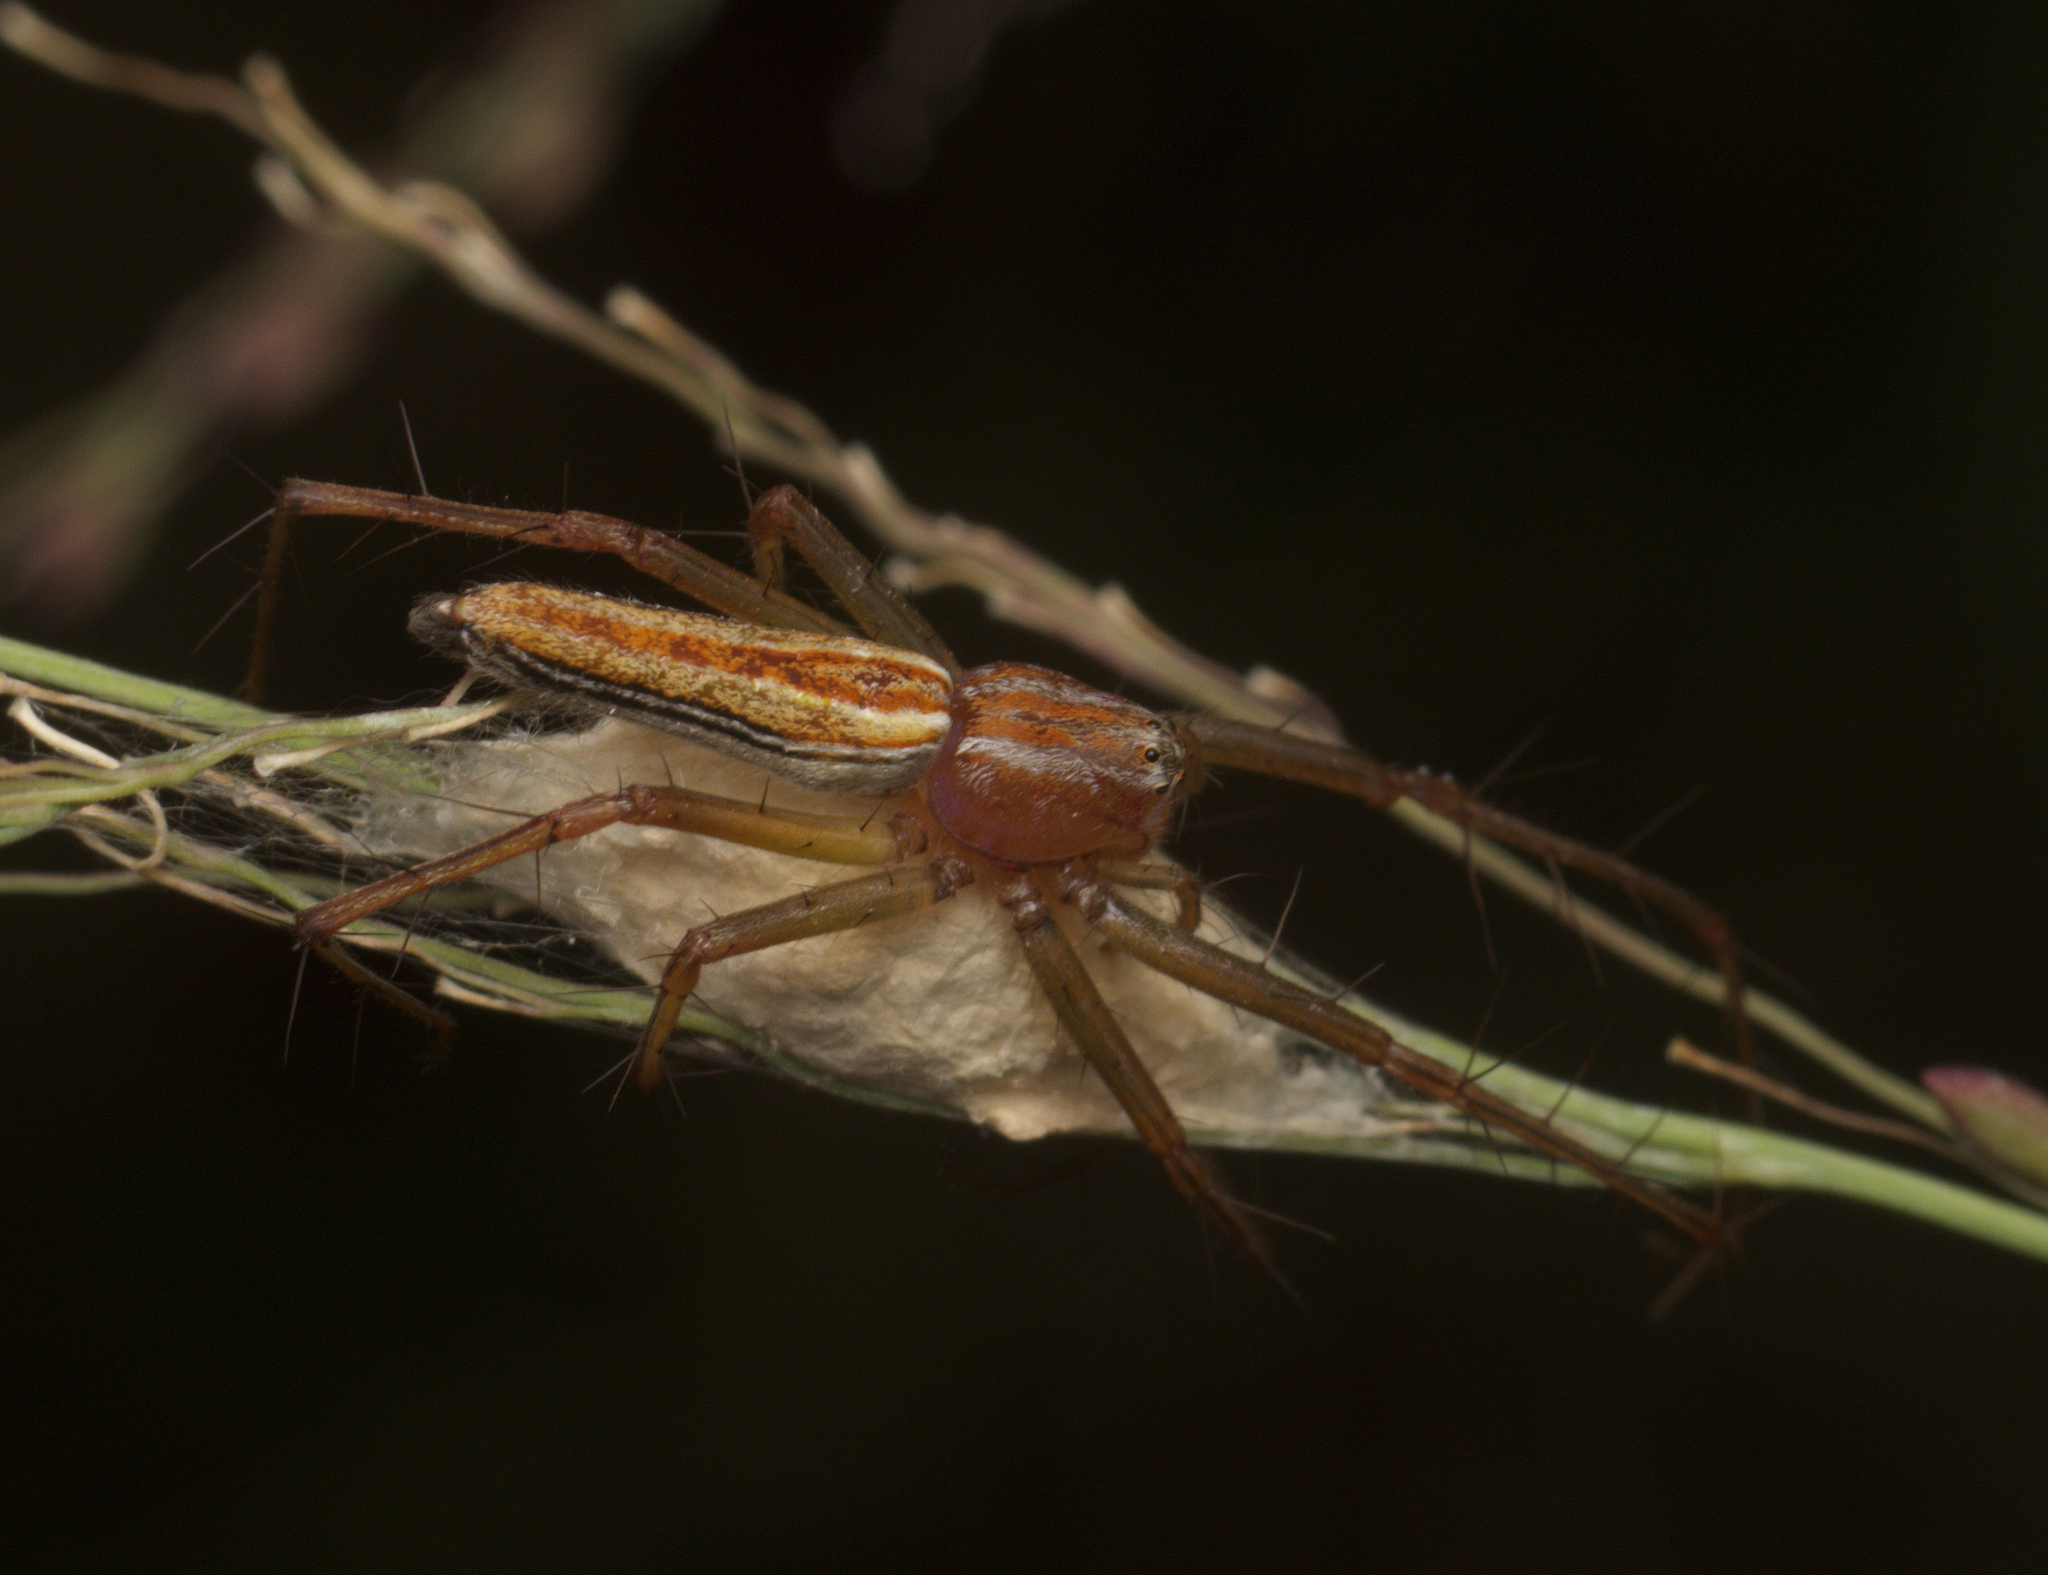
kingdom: Animalia
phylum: Arthropoda
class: Arachnida
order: Araneae
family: Oxyopidae
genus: Oxyopes
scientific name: Oxyopes macilentus
